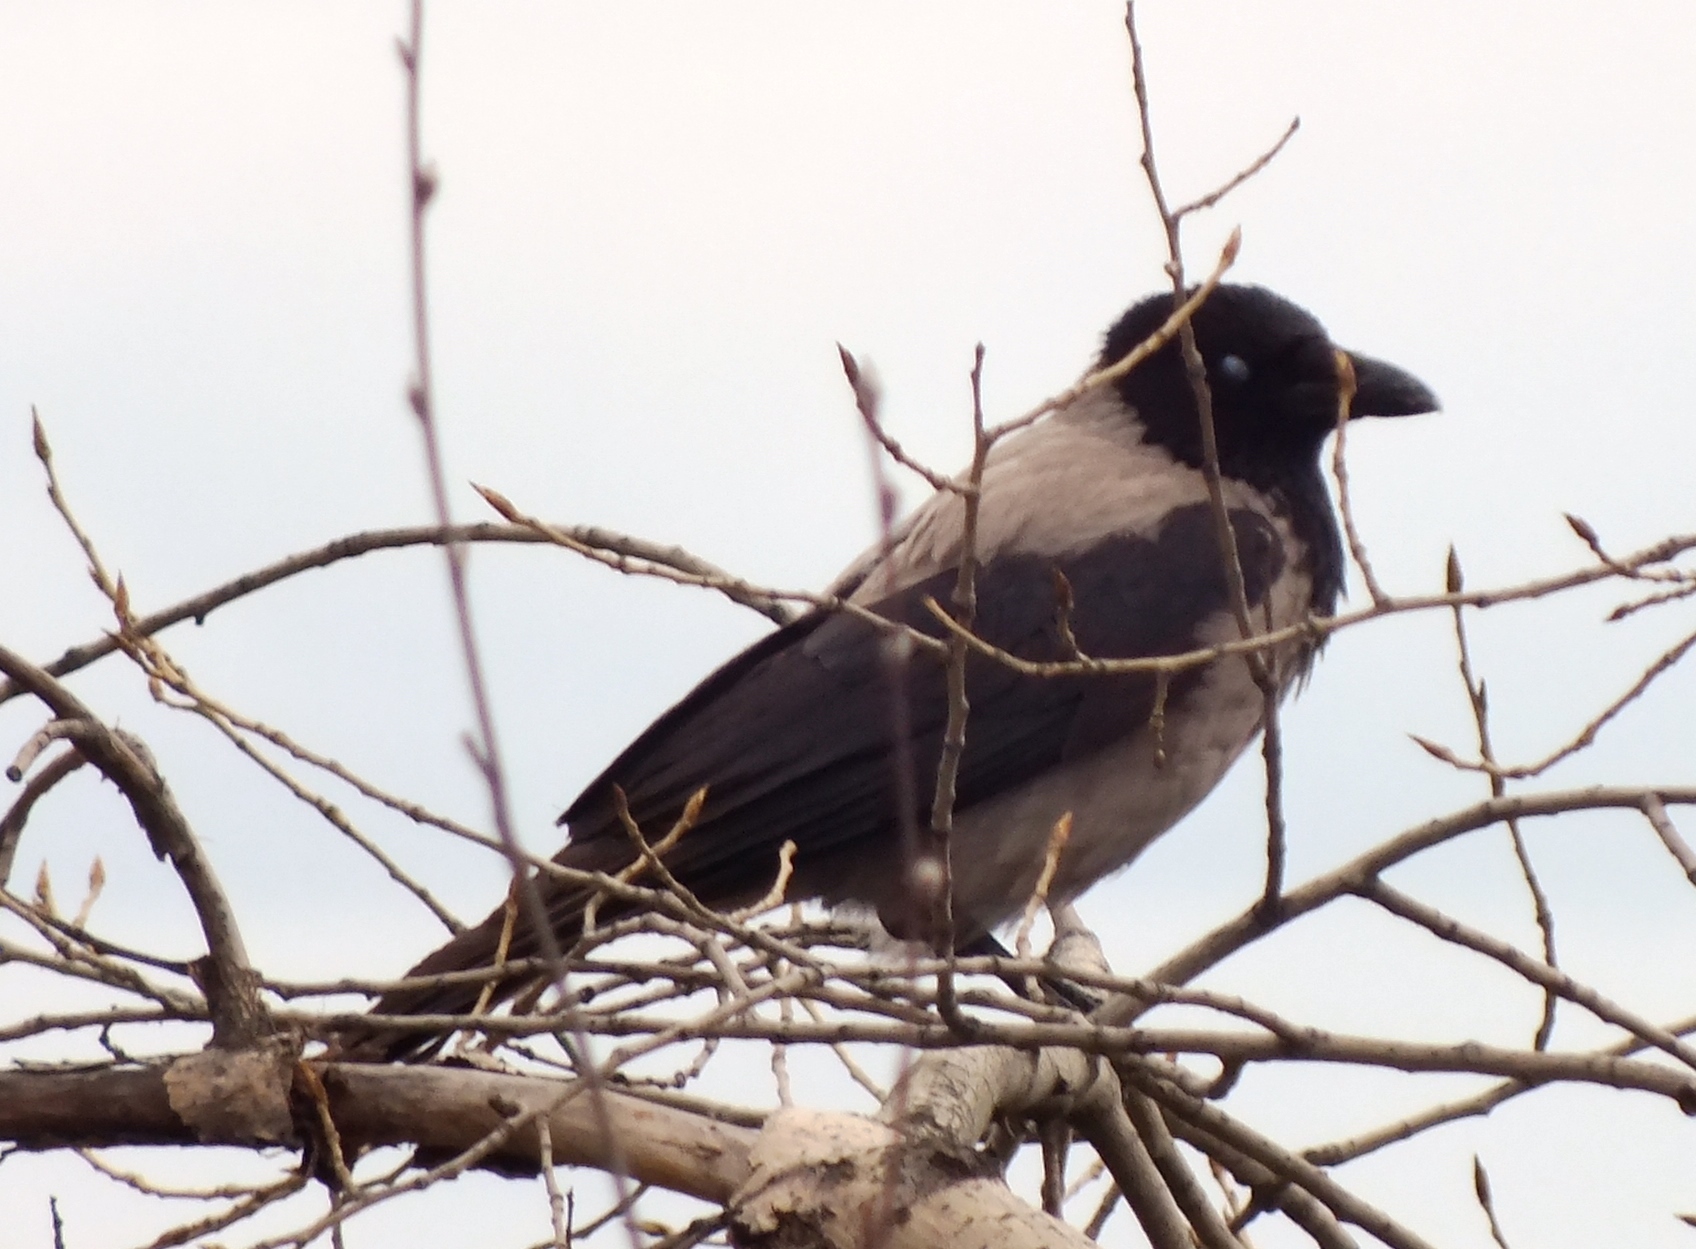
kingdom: Animalia
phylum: Chordata
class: Aves
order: Passeriformes
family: Corvidae
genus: Corvus
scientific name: Corvus cornix
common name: Hooded crow
